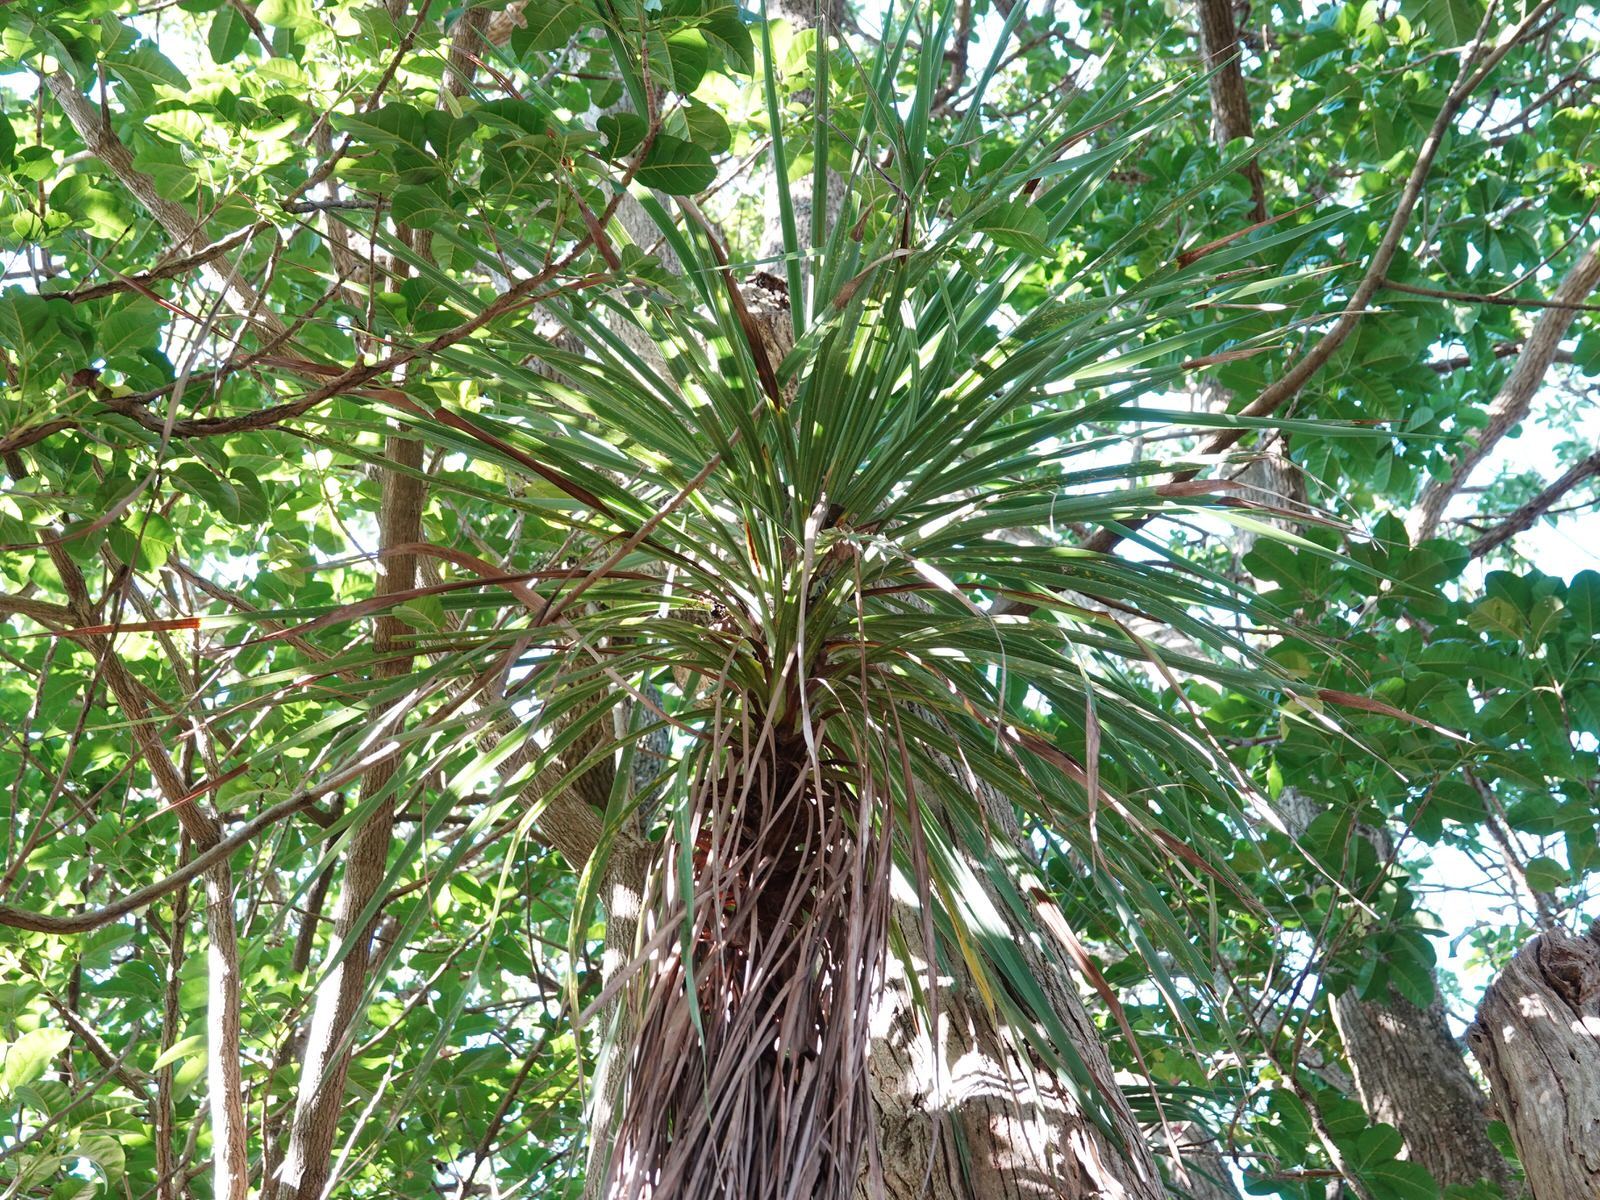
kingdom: Plantae
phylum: Tracheophyta
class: Liliopsida
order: Asparagales
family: Asparagaceae
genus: Cordyline
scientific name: Cordyline australis
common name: Cabbage-palm
